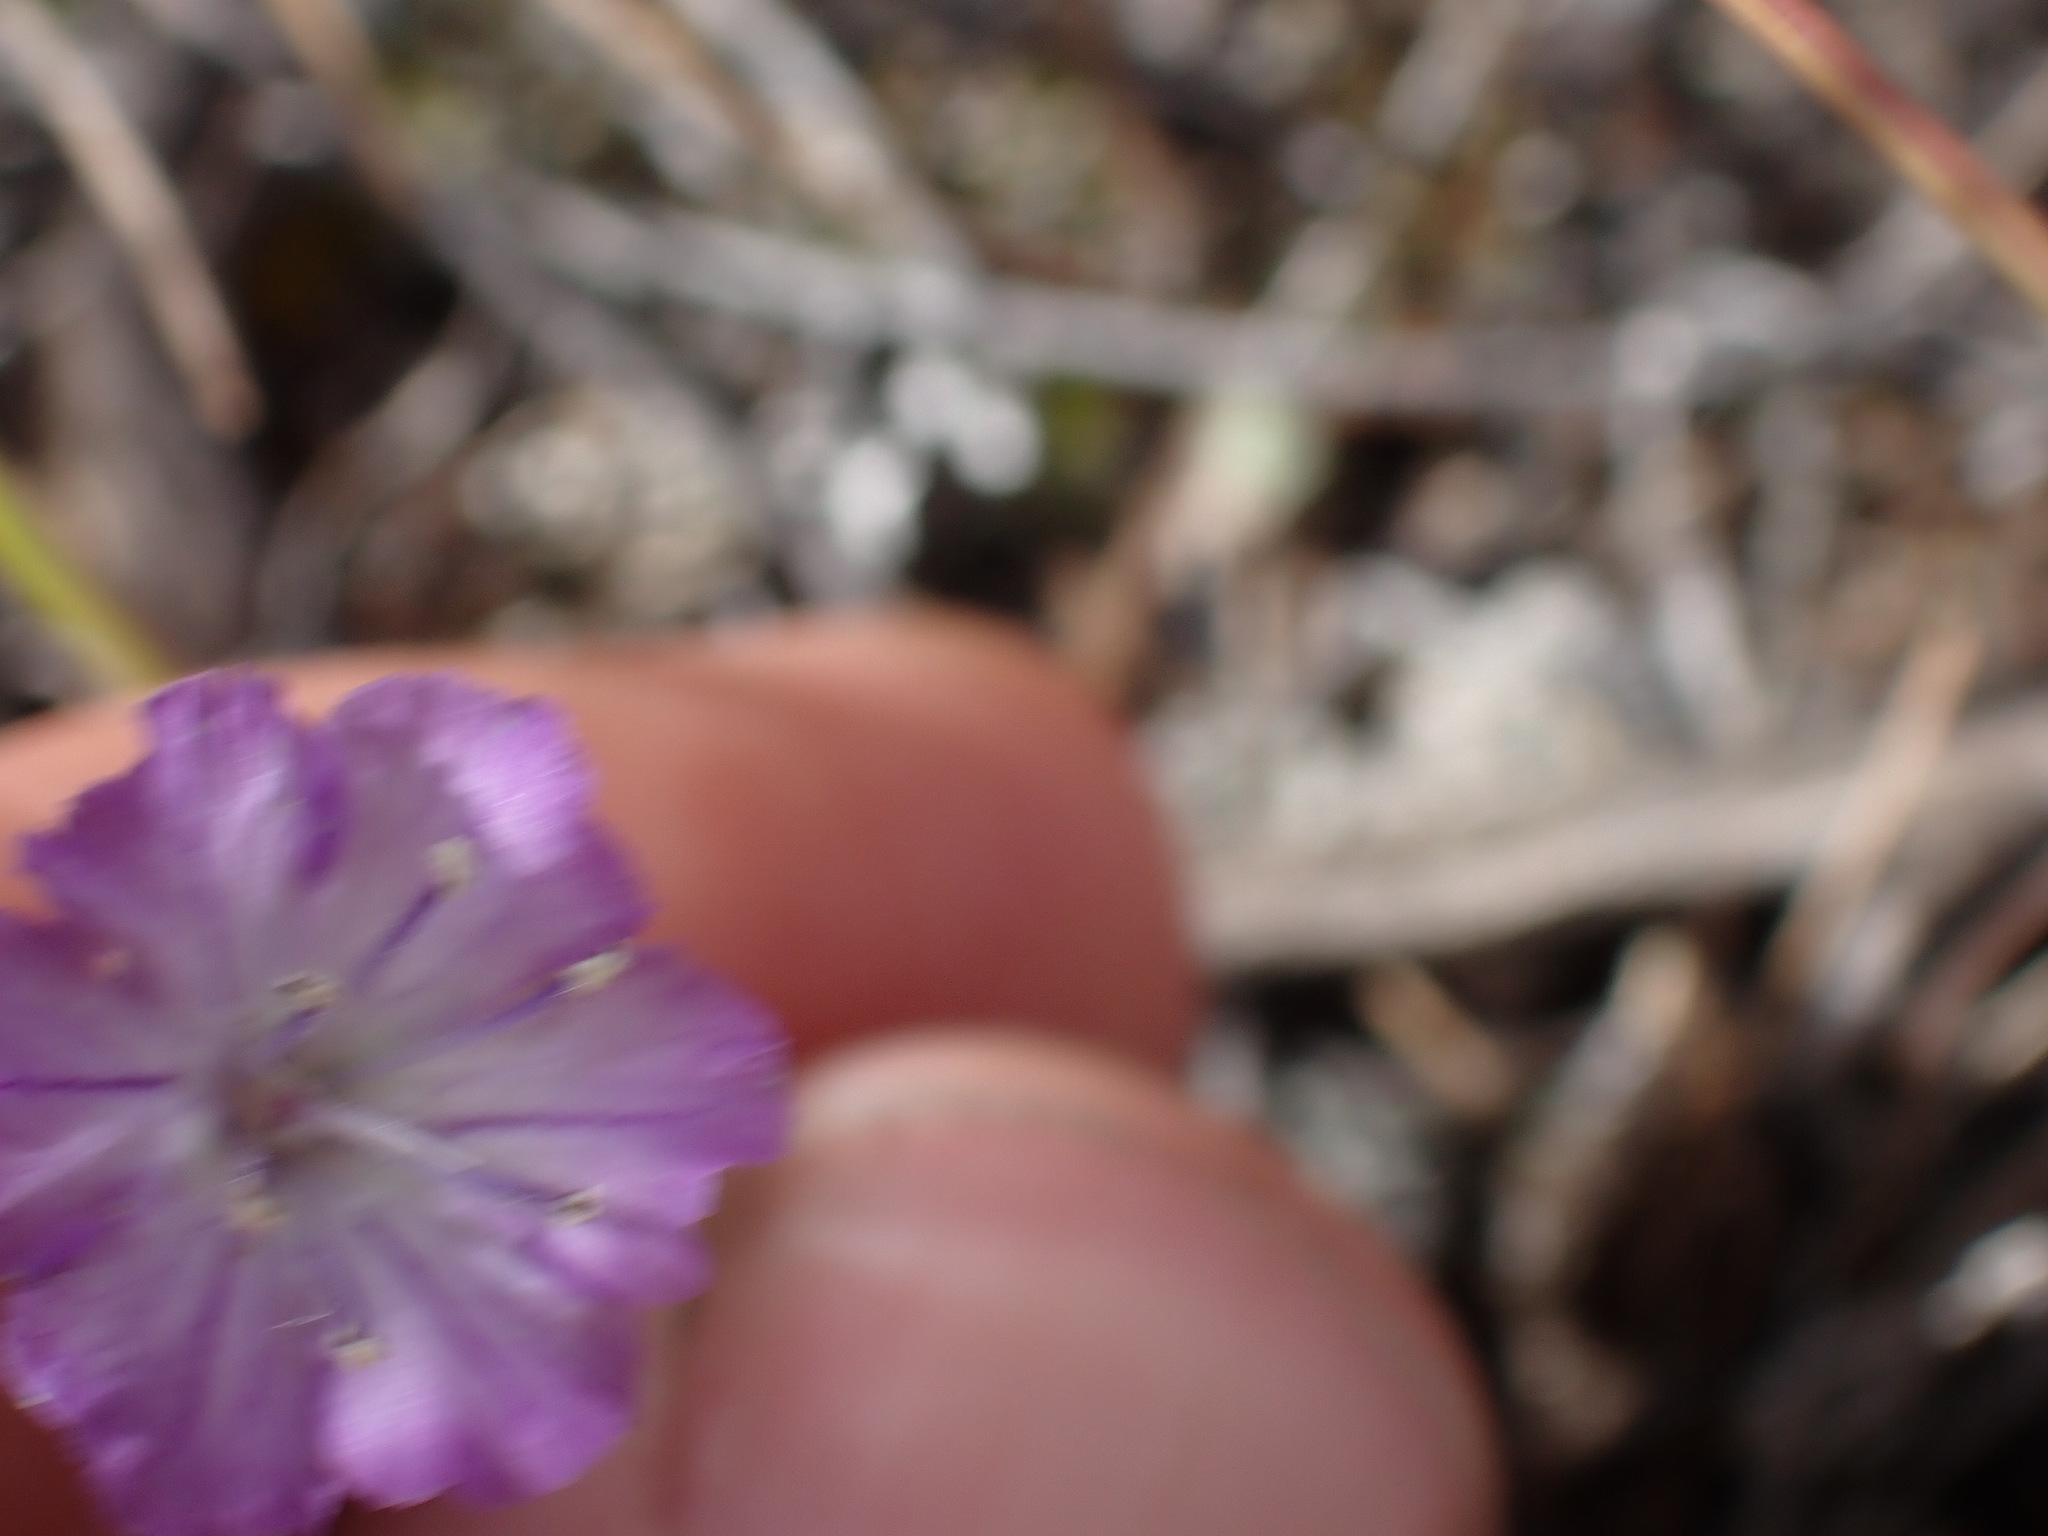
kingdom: Plantae
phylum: Tracheophyta
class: Magnoliopsida
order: Boraginales
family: Hydrophyllaceae
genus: Phacelia
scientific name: Phacelia linearis
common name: Linear-leaved phacelia
